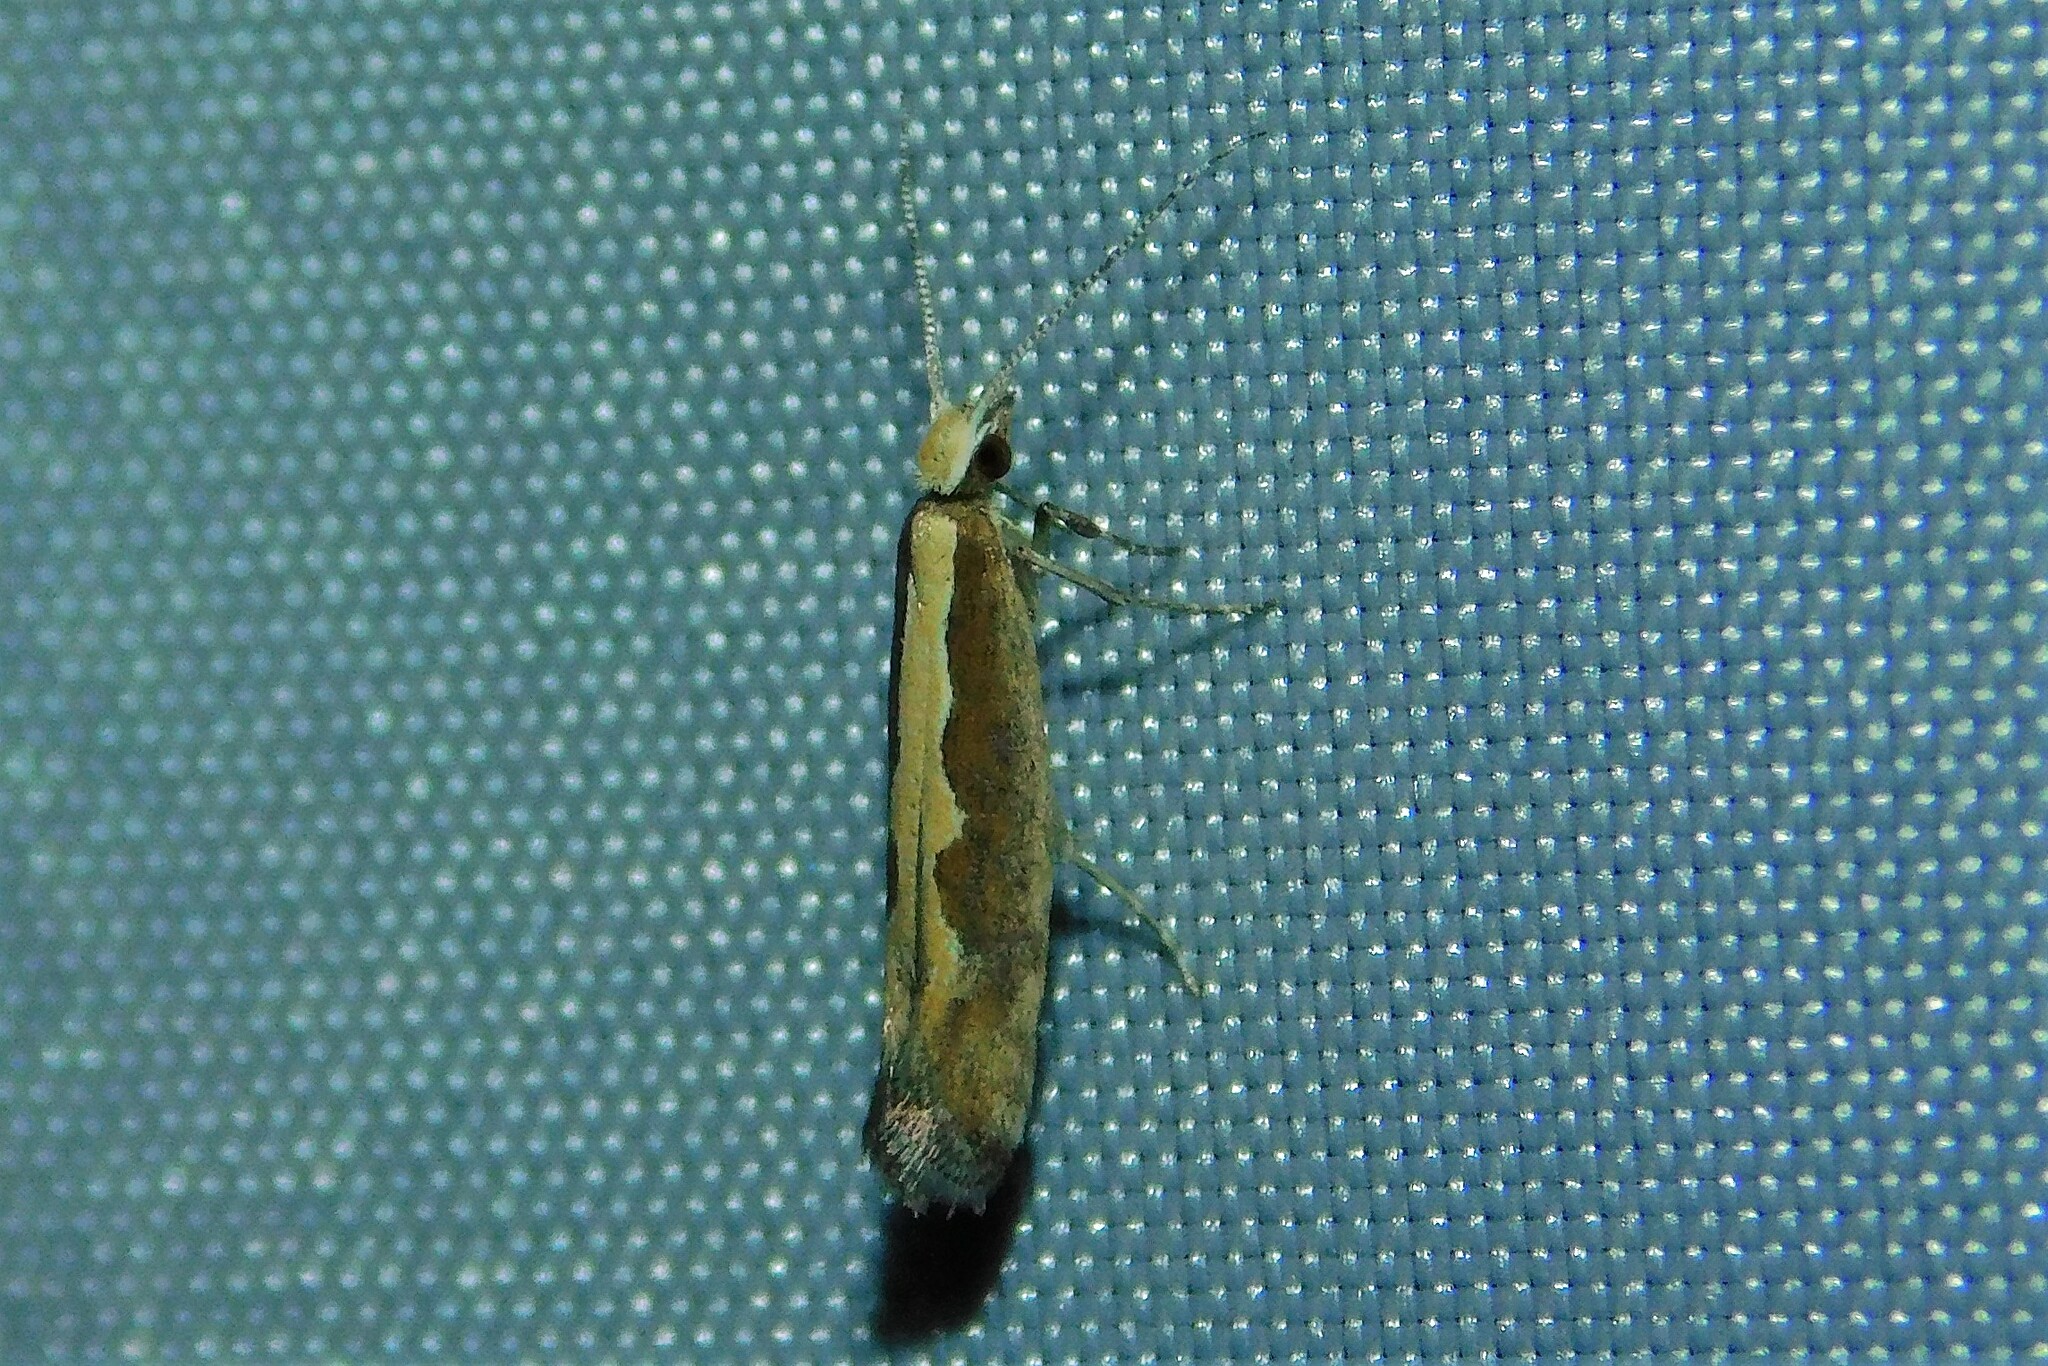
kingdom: Animalia
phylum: Arthropoda
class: Insecta
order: Lepidoptera
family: Plutellidae
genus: Plutella
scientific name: Plutella xylostella
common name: Diamond-back moth
